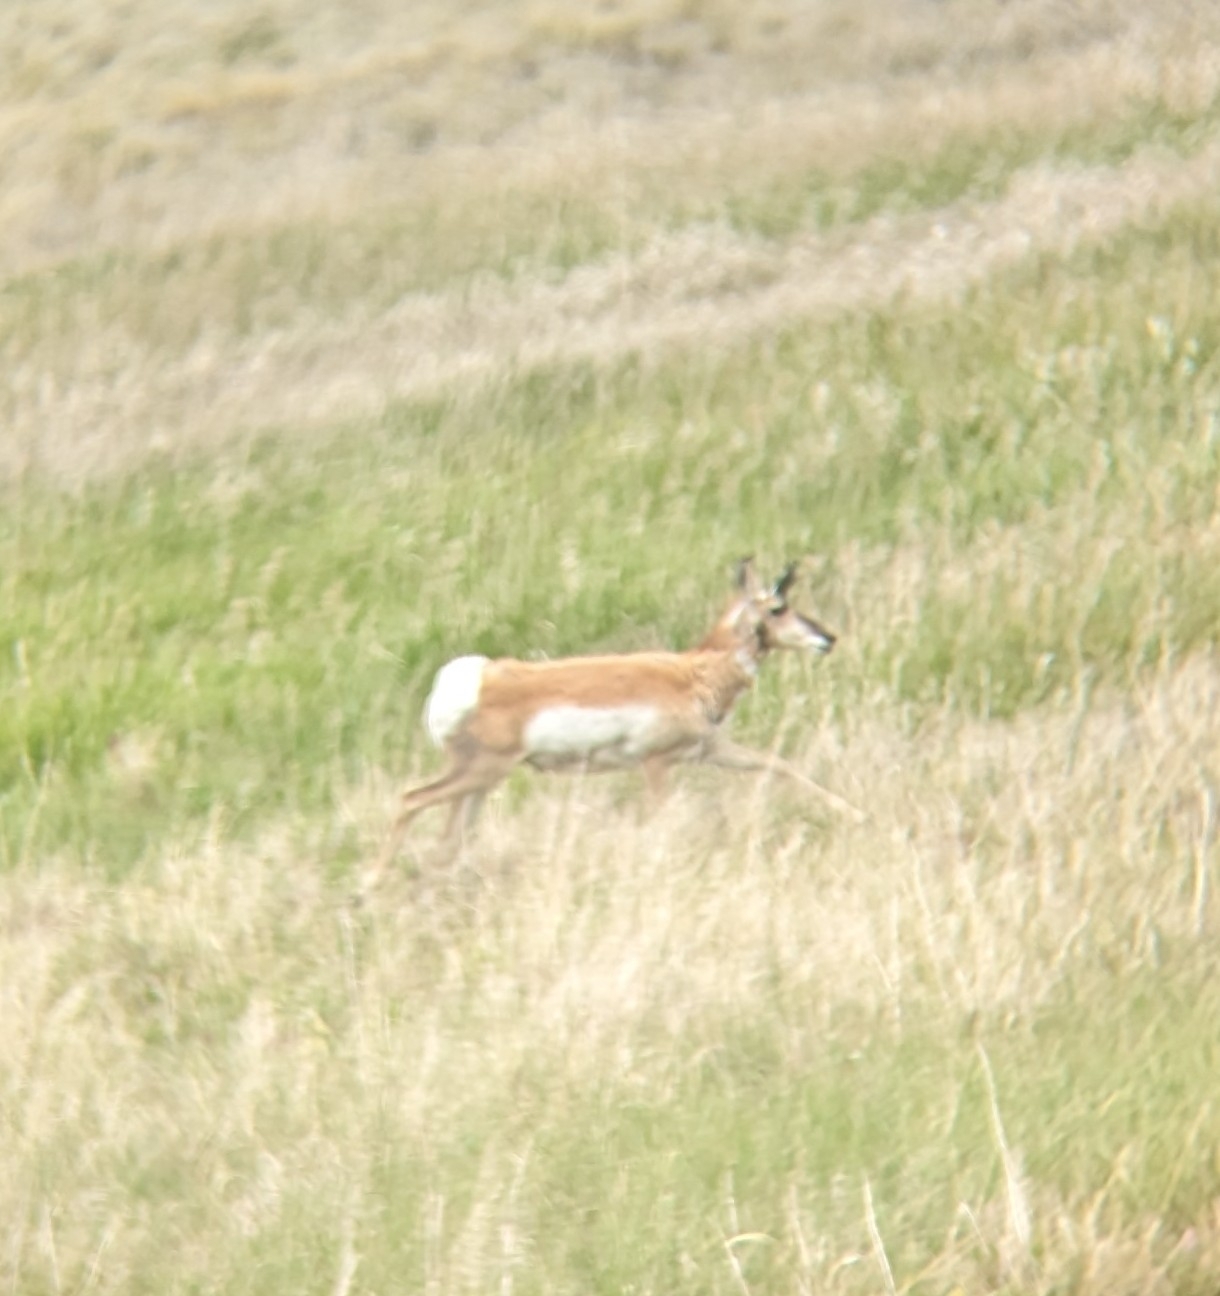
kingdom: Animalia
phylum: Chordata
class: Mammalia
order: Artiodactyla
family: Antilocapridae
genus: Antilocapra
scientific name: Antilocapra americana
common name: Pronghorn
